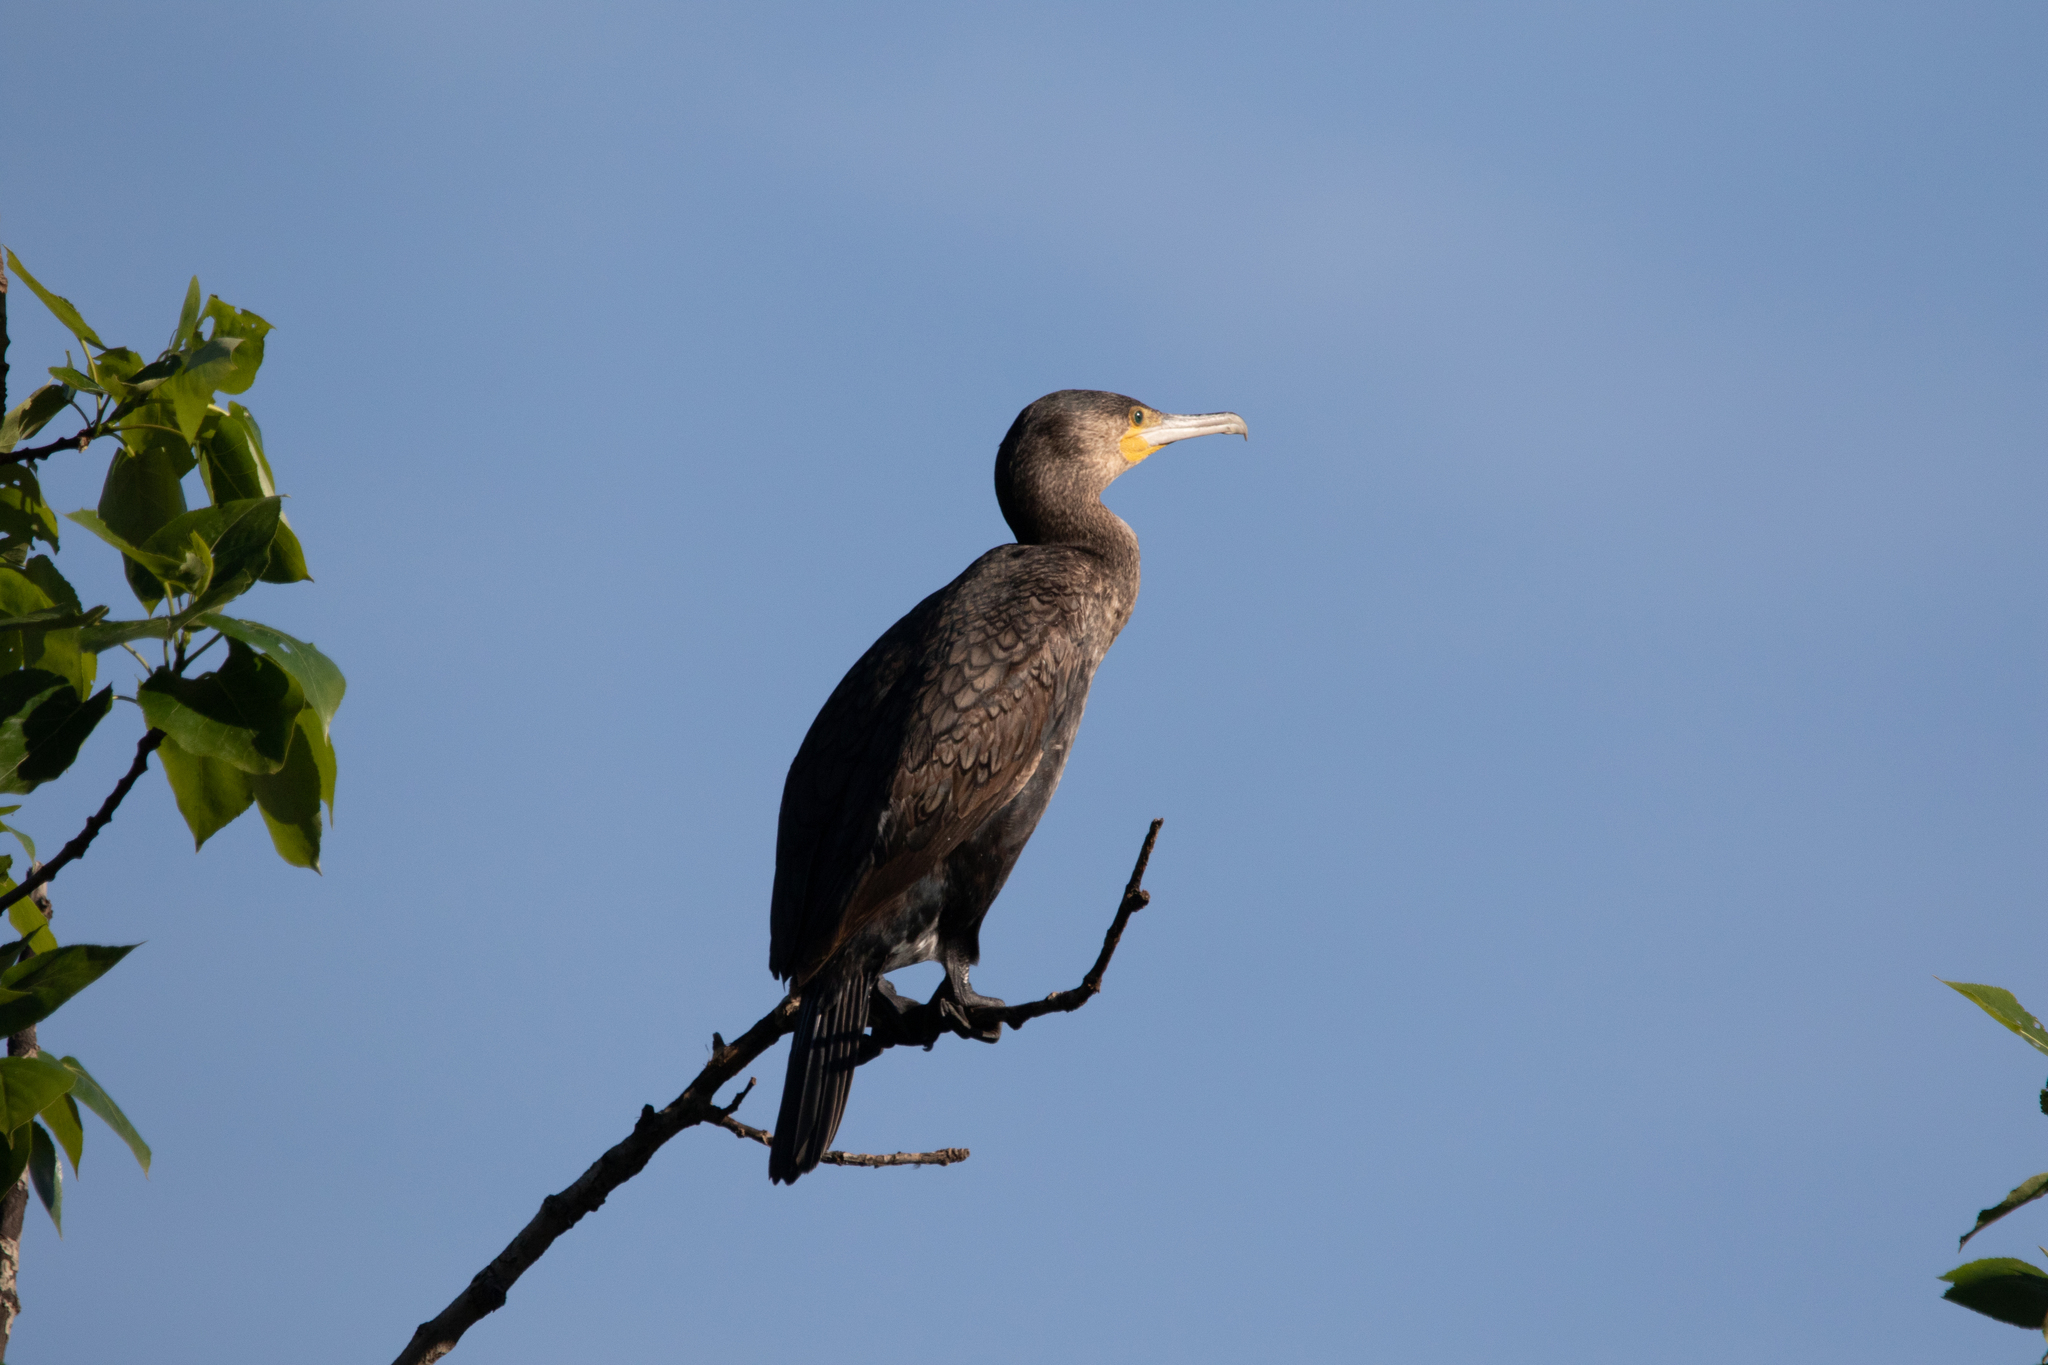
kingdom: Animalia
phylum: Chordata
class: Aves
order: Suliformes
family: Phalacrocoracidae
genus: Phalacrocorax
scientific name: Phalacrocorax carbo
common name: Great cormorant
